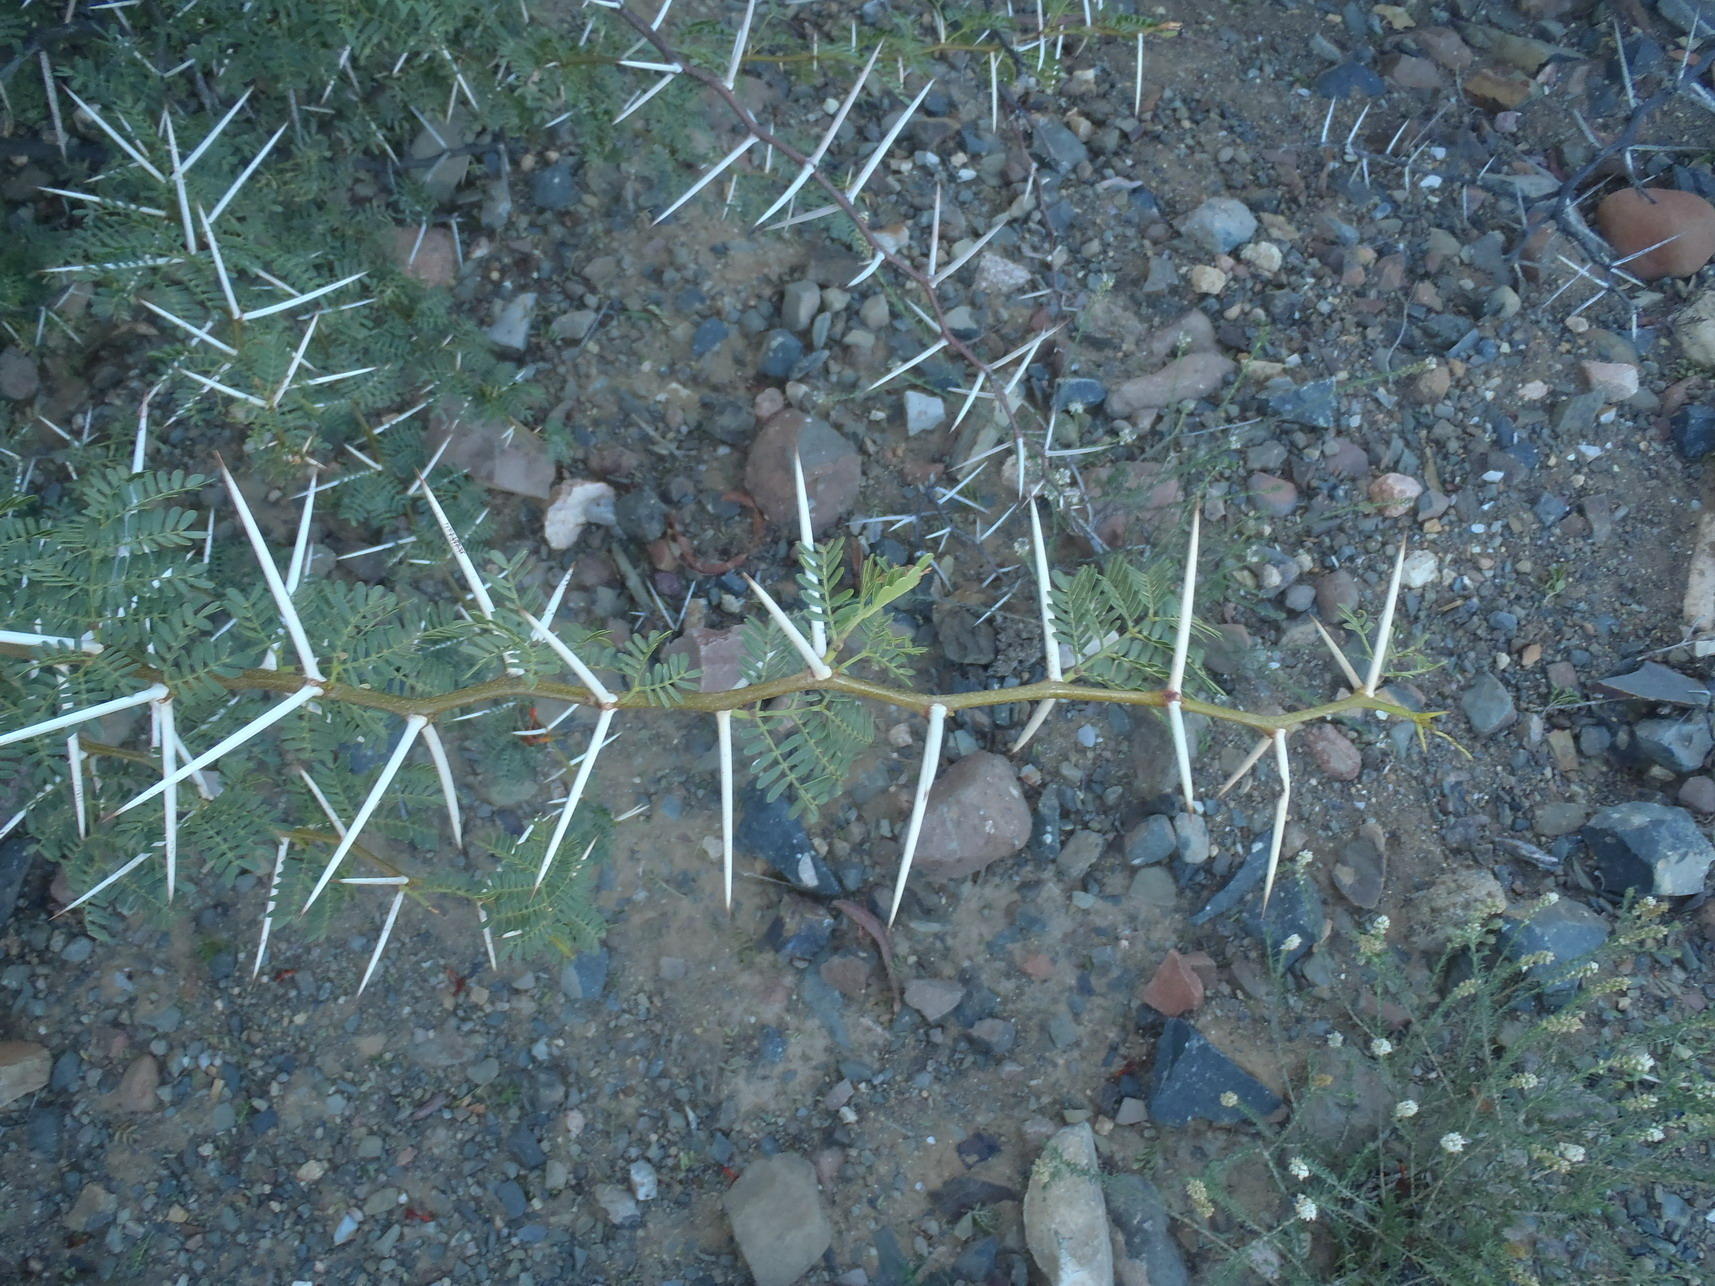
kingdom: Plantae
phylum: Tracheophyta
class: Magnoliopsida
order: Fabales
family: Fabaceae
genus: Vachellia
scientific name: Vachellia karroo
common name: Sweet thorn
